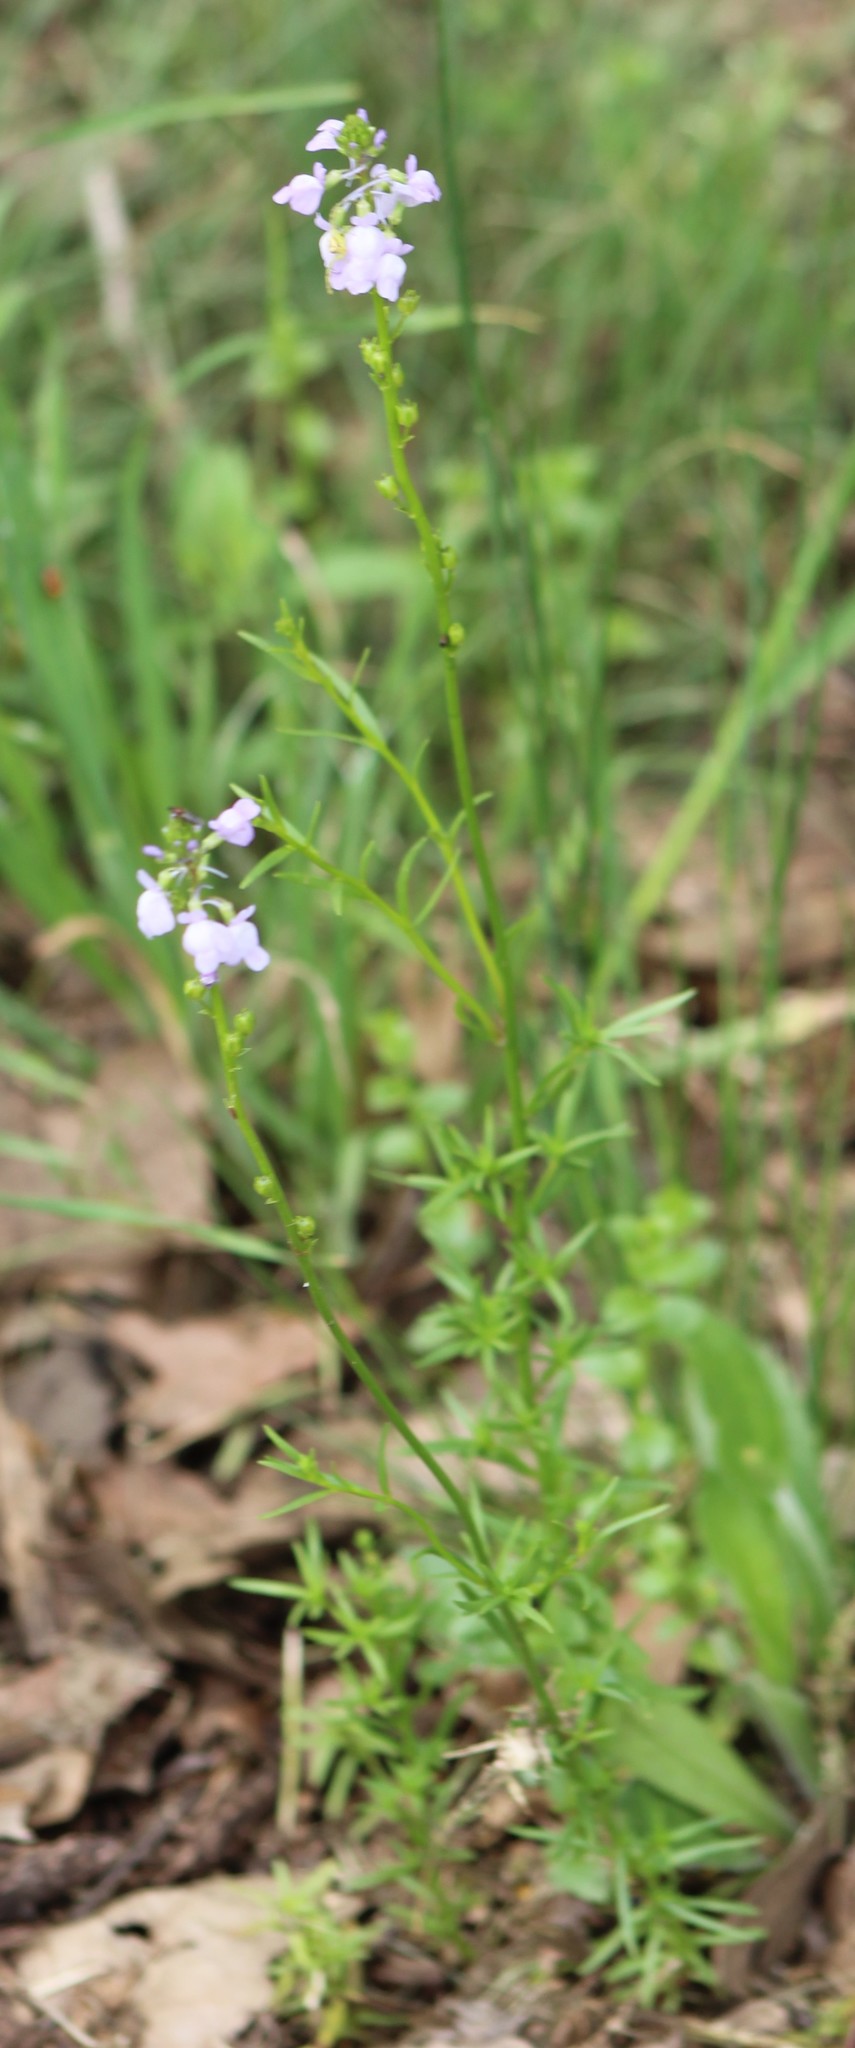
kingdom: Plantae
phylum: Tracheophyta
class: Magnoliopsida
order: Lamiales
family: Plantaginaceae
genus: Nuttallanthus
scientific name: Nuttallanthus texanus
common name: Texas toadflax
